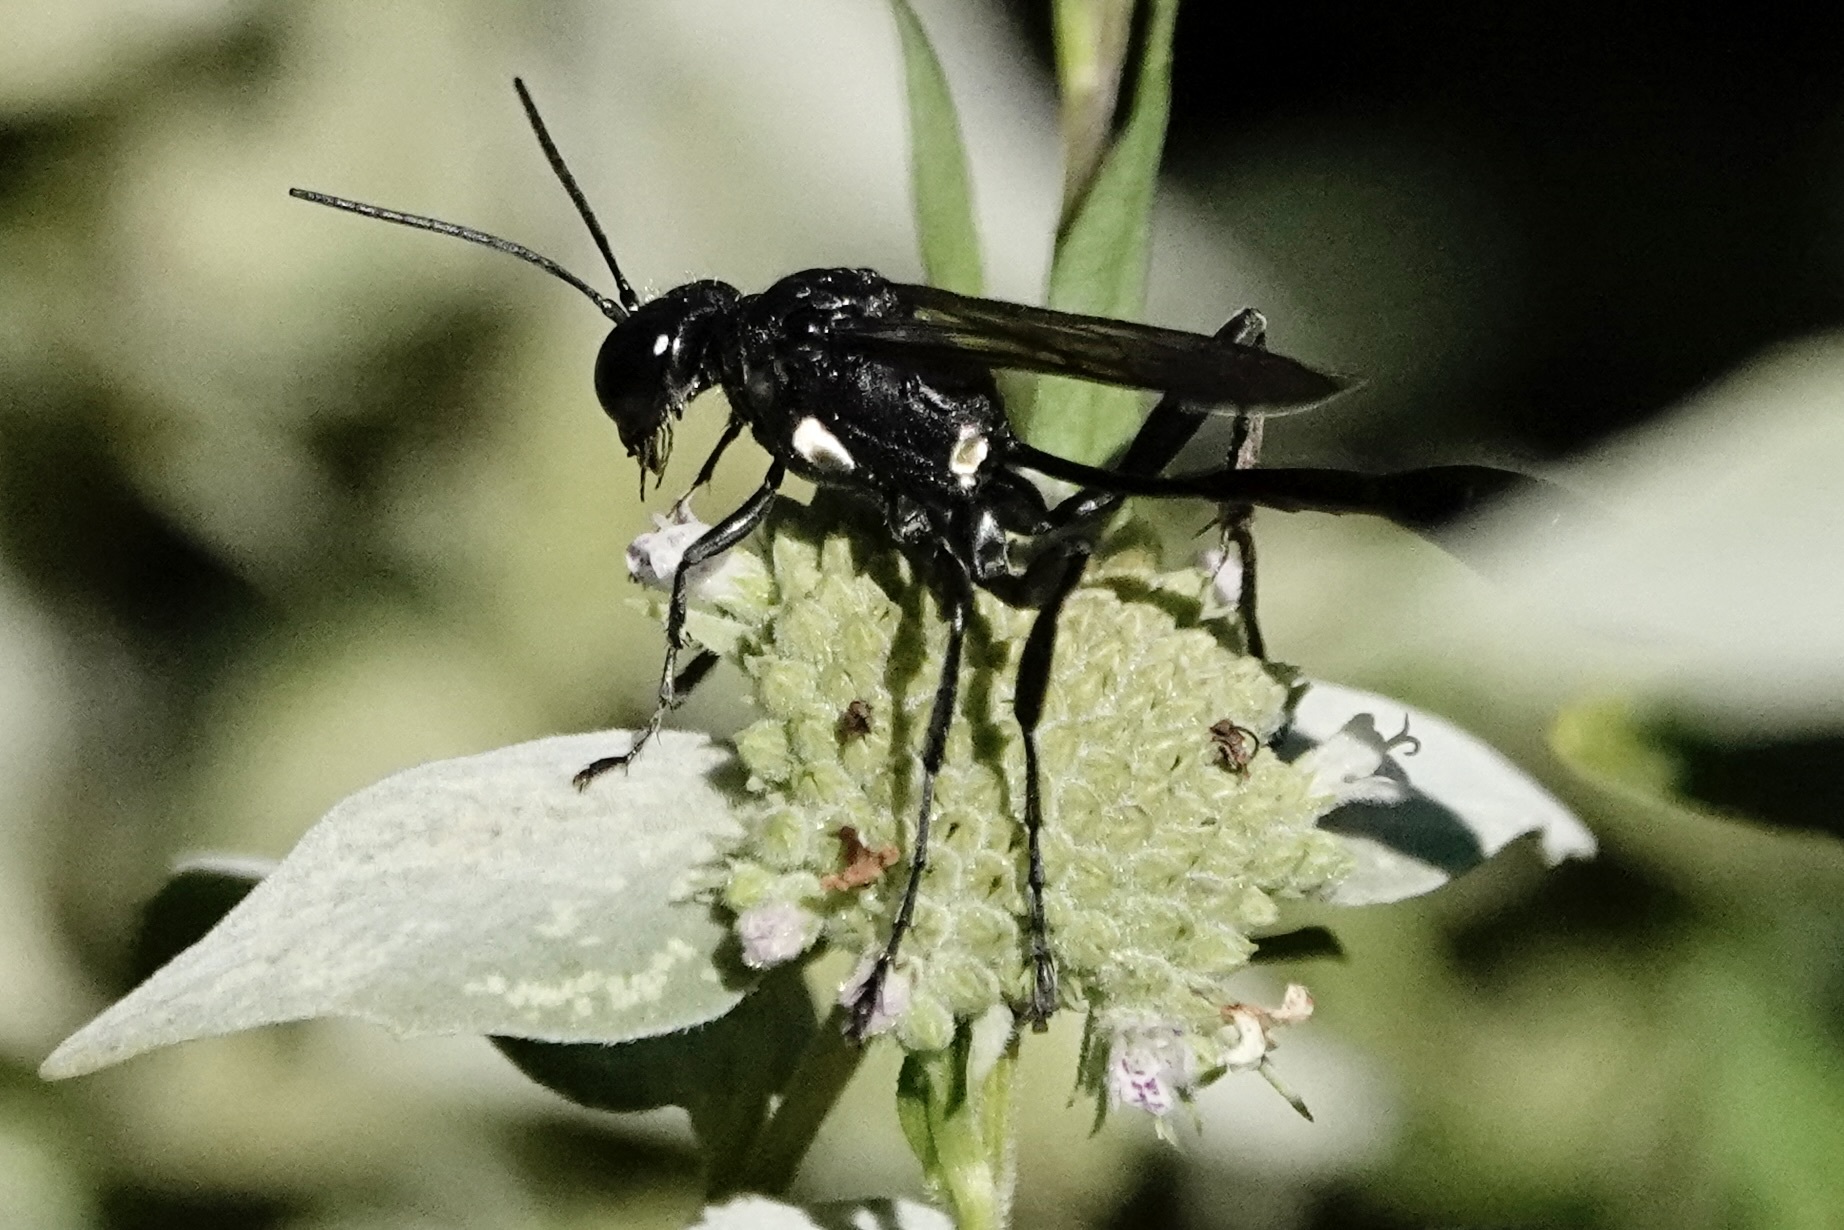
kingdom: Animalia
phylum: Arthropoda
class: Insecta
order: Hymenoptera
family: Sphecidae
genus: Eremnophila
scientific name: Eremnophila aureonotata
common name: Gold-marked thread-waisted wasp
